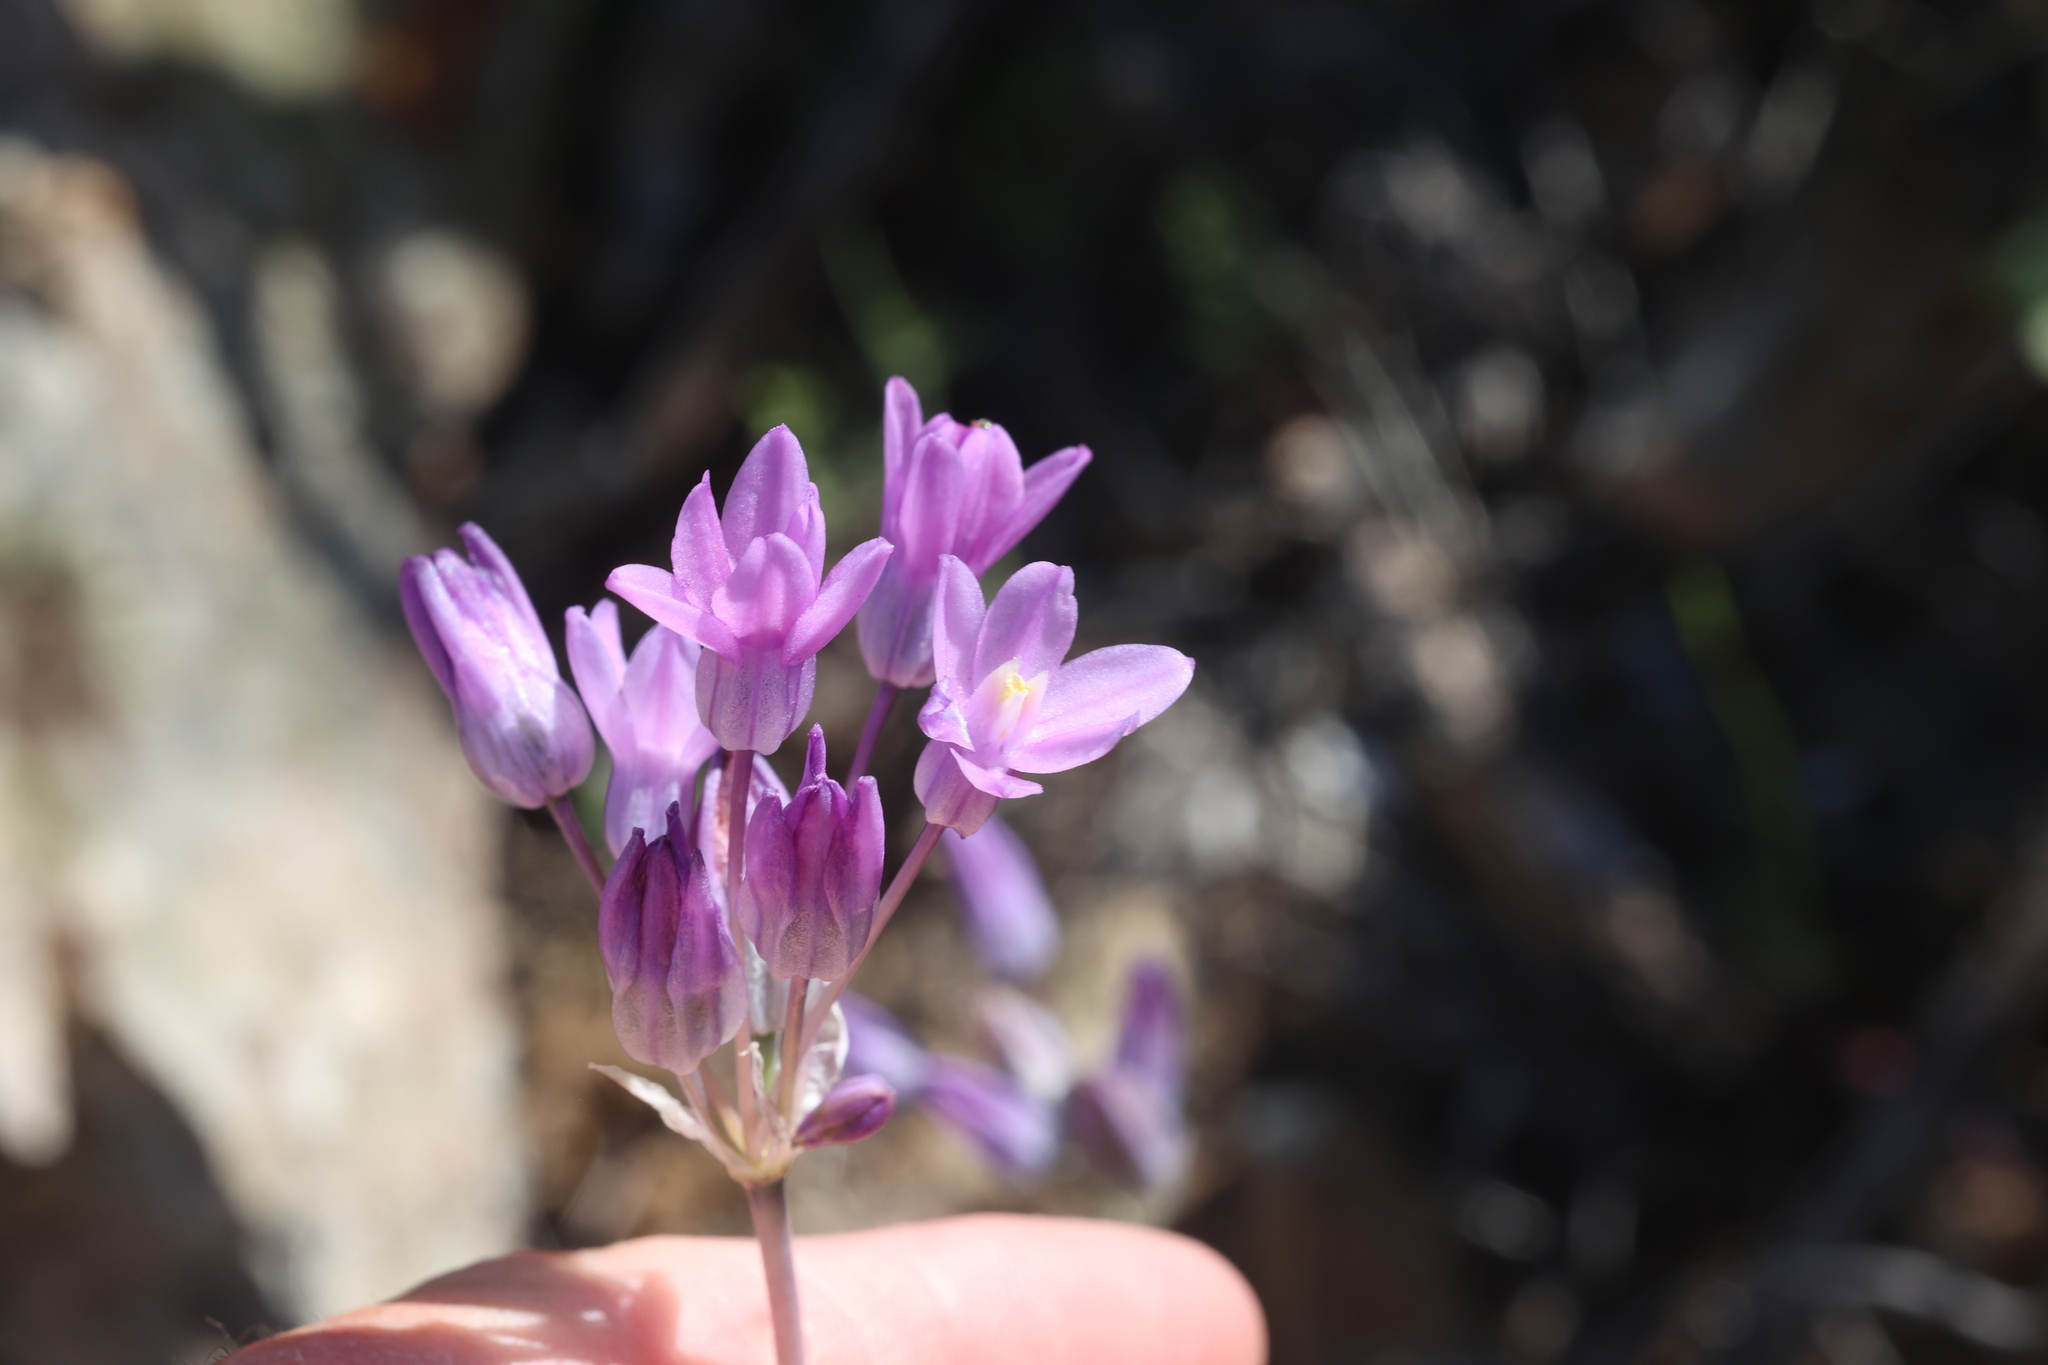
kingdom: Plantae
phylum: Tracheophyta
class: Liliopsida
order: Asparagales
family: Asparagaceae
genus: Dipterostemon
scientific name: Dipterostemon capitatus
